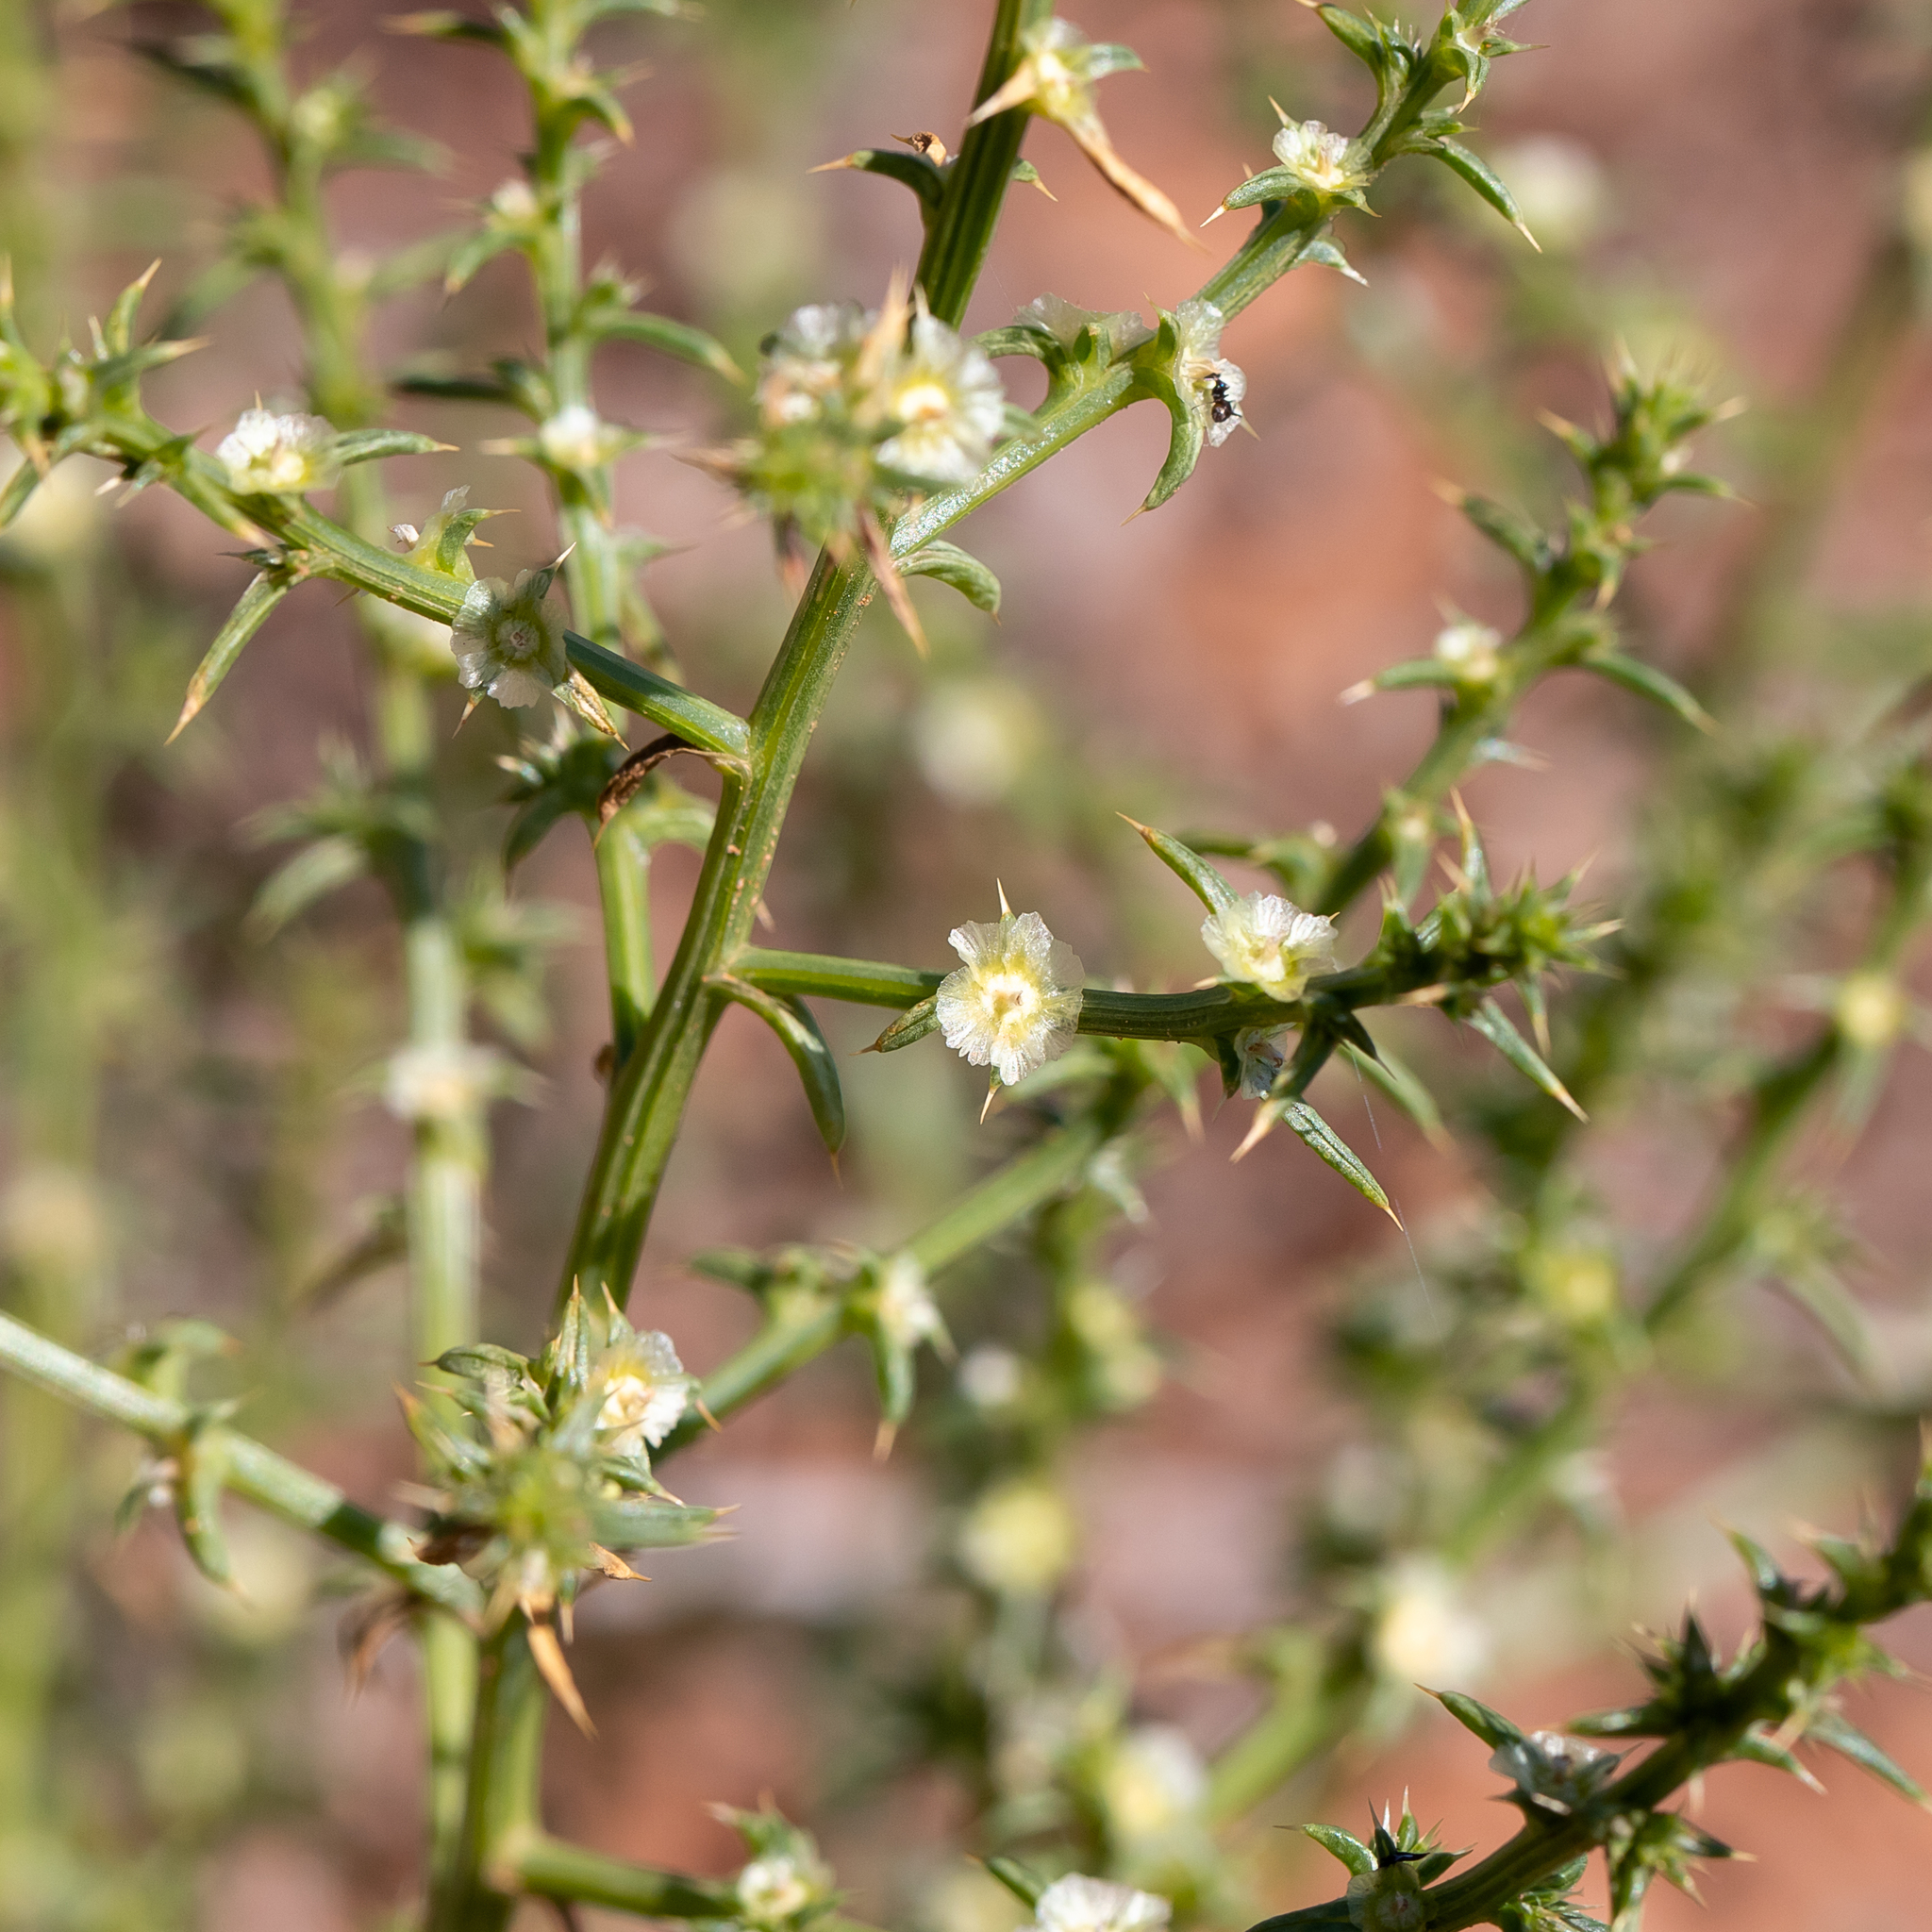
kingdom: Plantae
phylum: Tracheophyta
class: Magnoliopsida
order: Caryophyllales
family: Amaranthaceae
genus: Salsola
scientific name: Salsola australis
